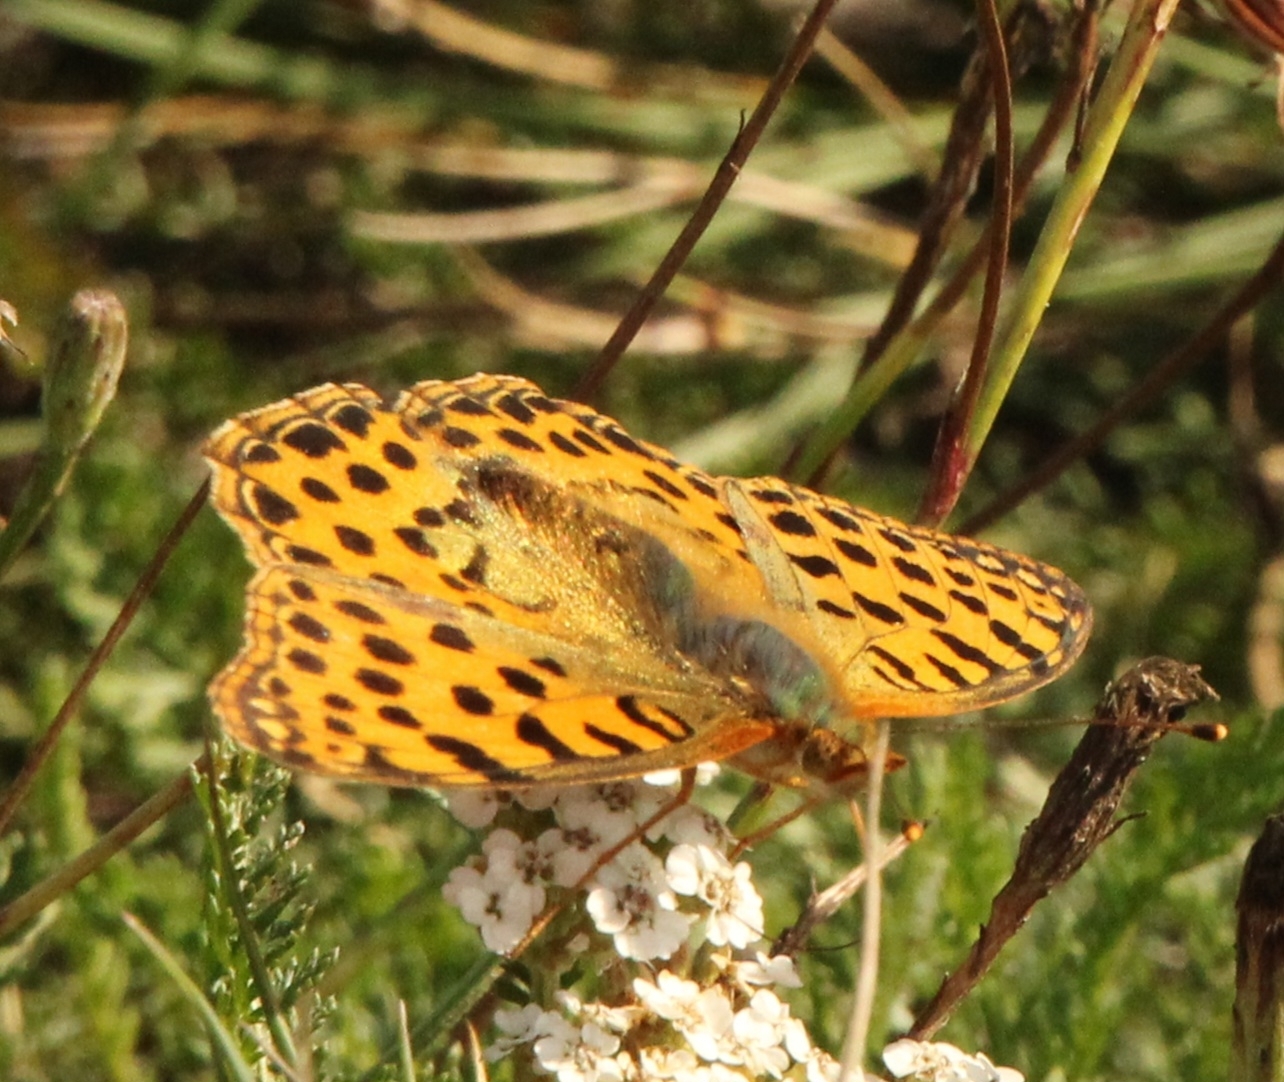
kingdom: Animalia
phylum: Arthropoda
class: Insecta
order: Lepidoptera
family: Nymphalidae
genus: Issoria
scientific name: Issoria lathonia
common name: Queen of spain fritillary
